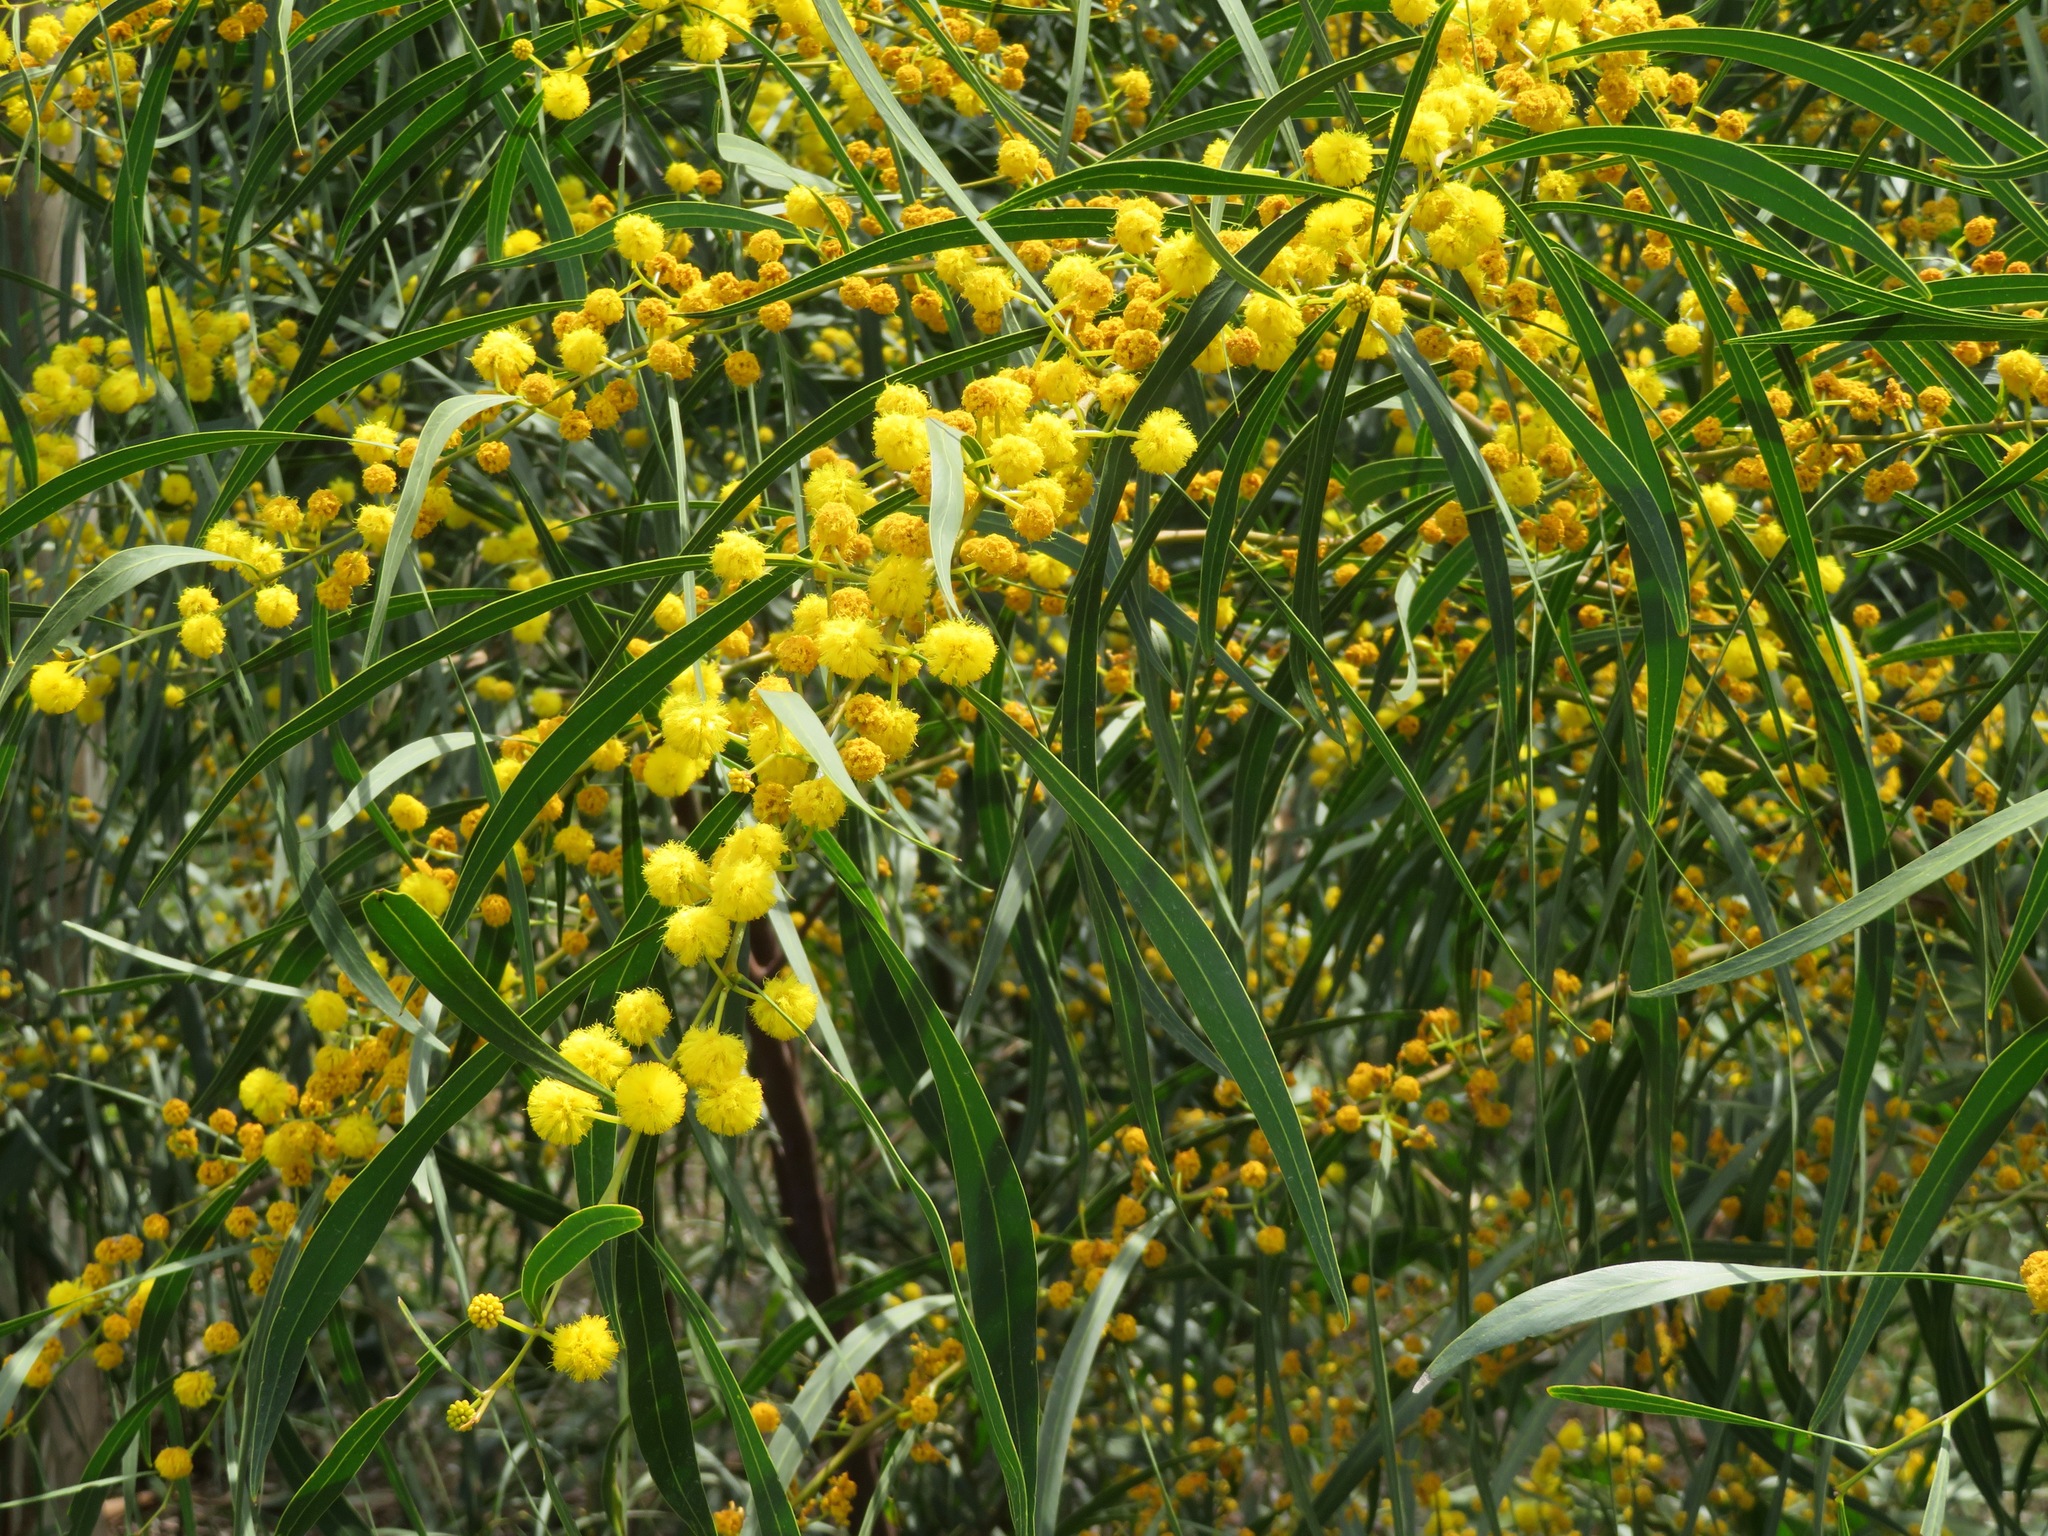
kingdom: Plantae
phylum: Tracheophyta
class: Magnoliopsida
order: Fabales
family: Fabaceae
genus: Acacia
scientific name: Acacia saligna
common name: Orange wattle
